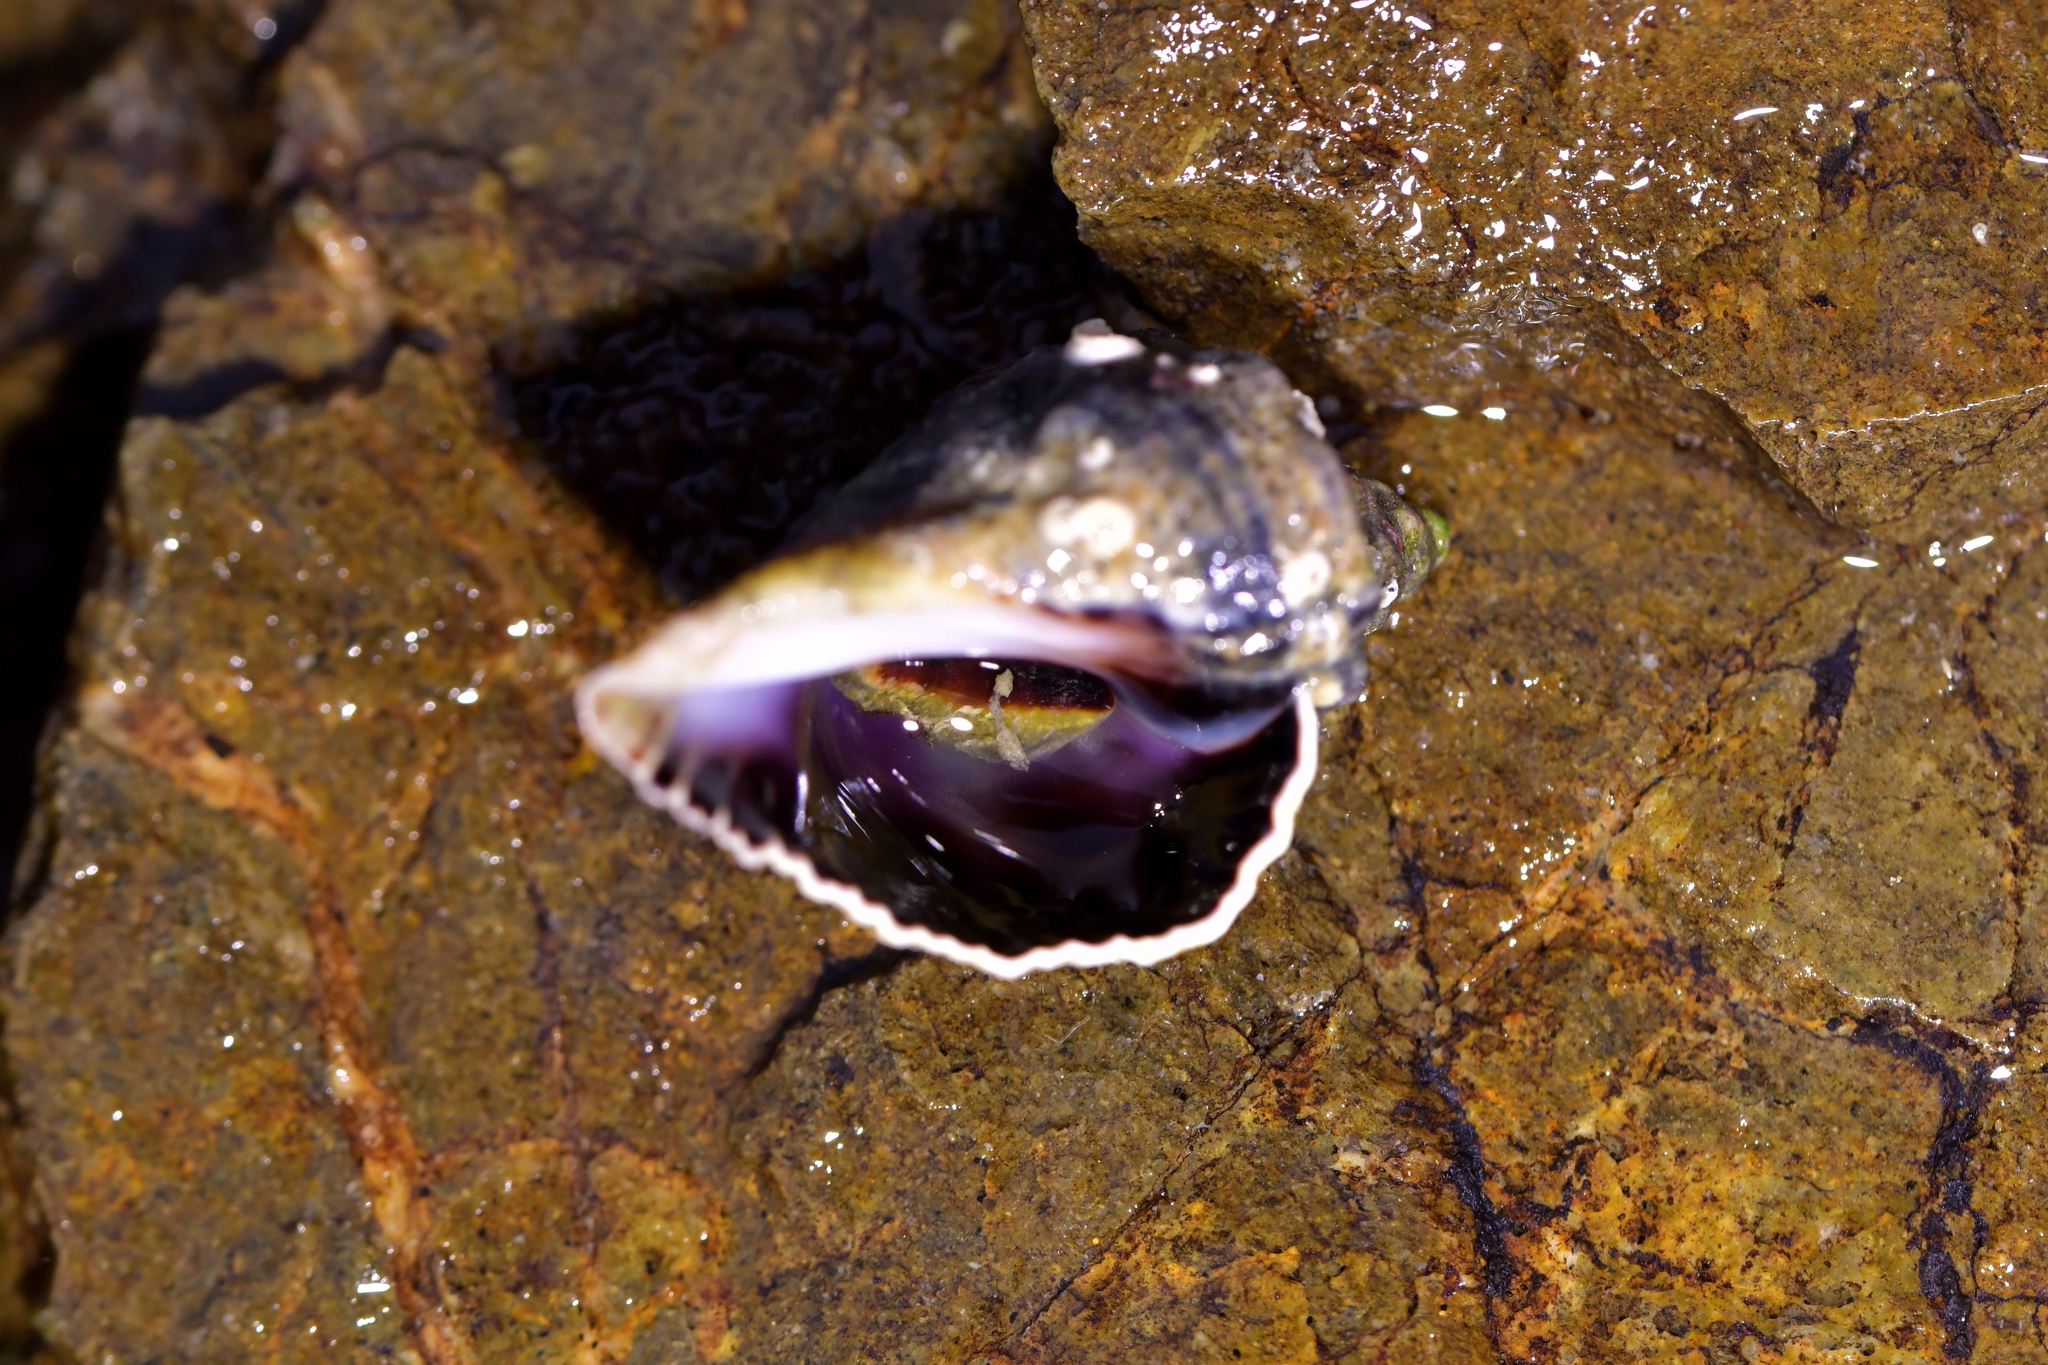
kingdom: Animalia
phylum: Mollusca
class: Gastropoda
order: Neogastropoda
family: Muricidae
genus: Haustrum
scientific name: Haustrum haustorium
